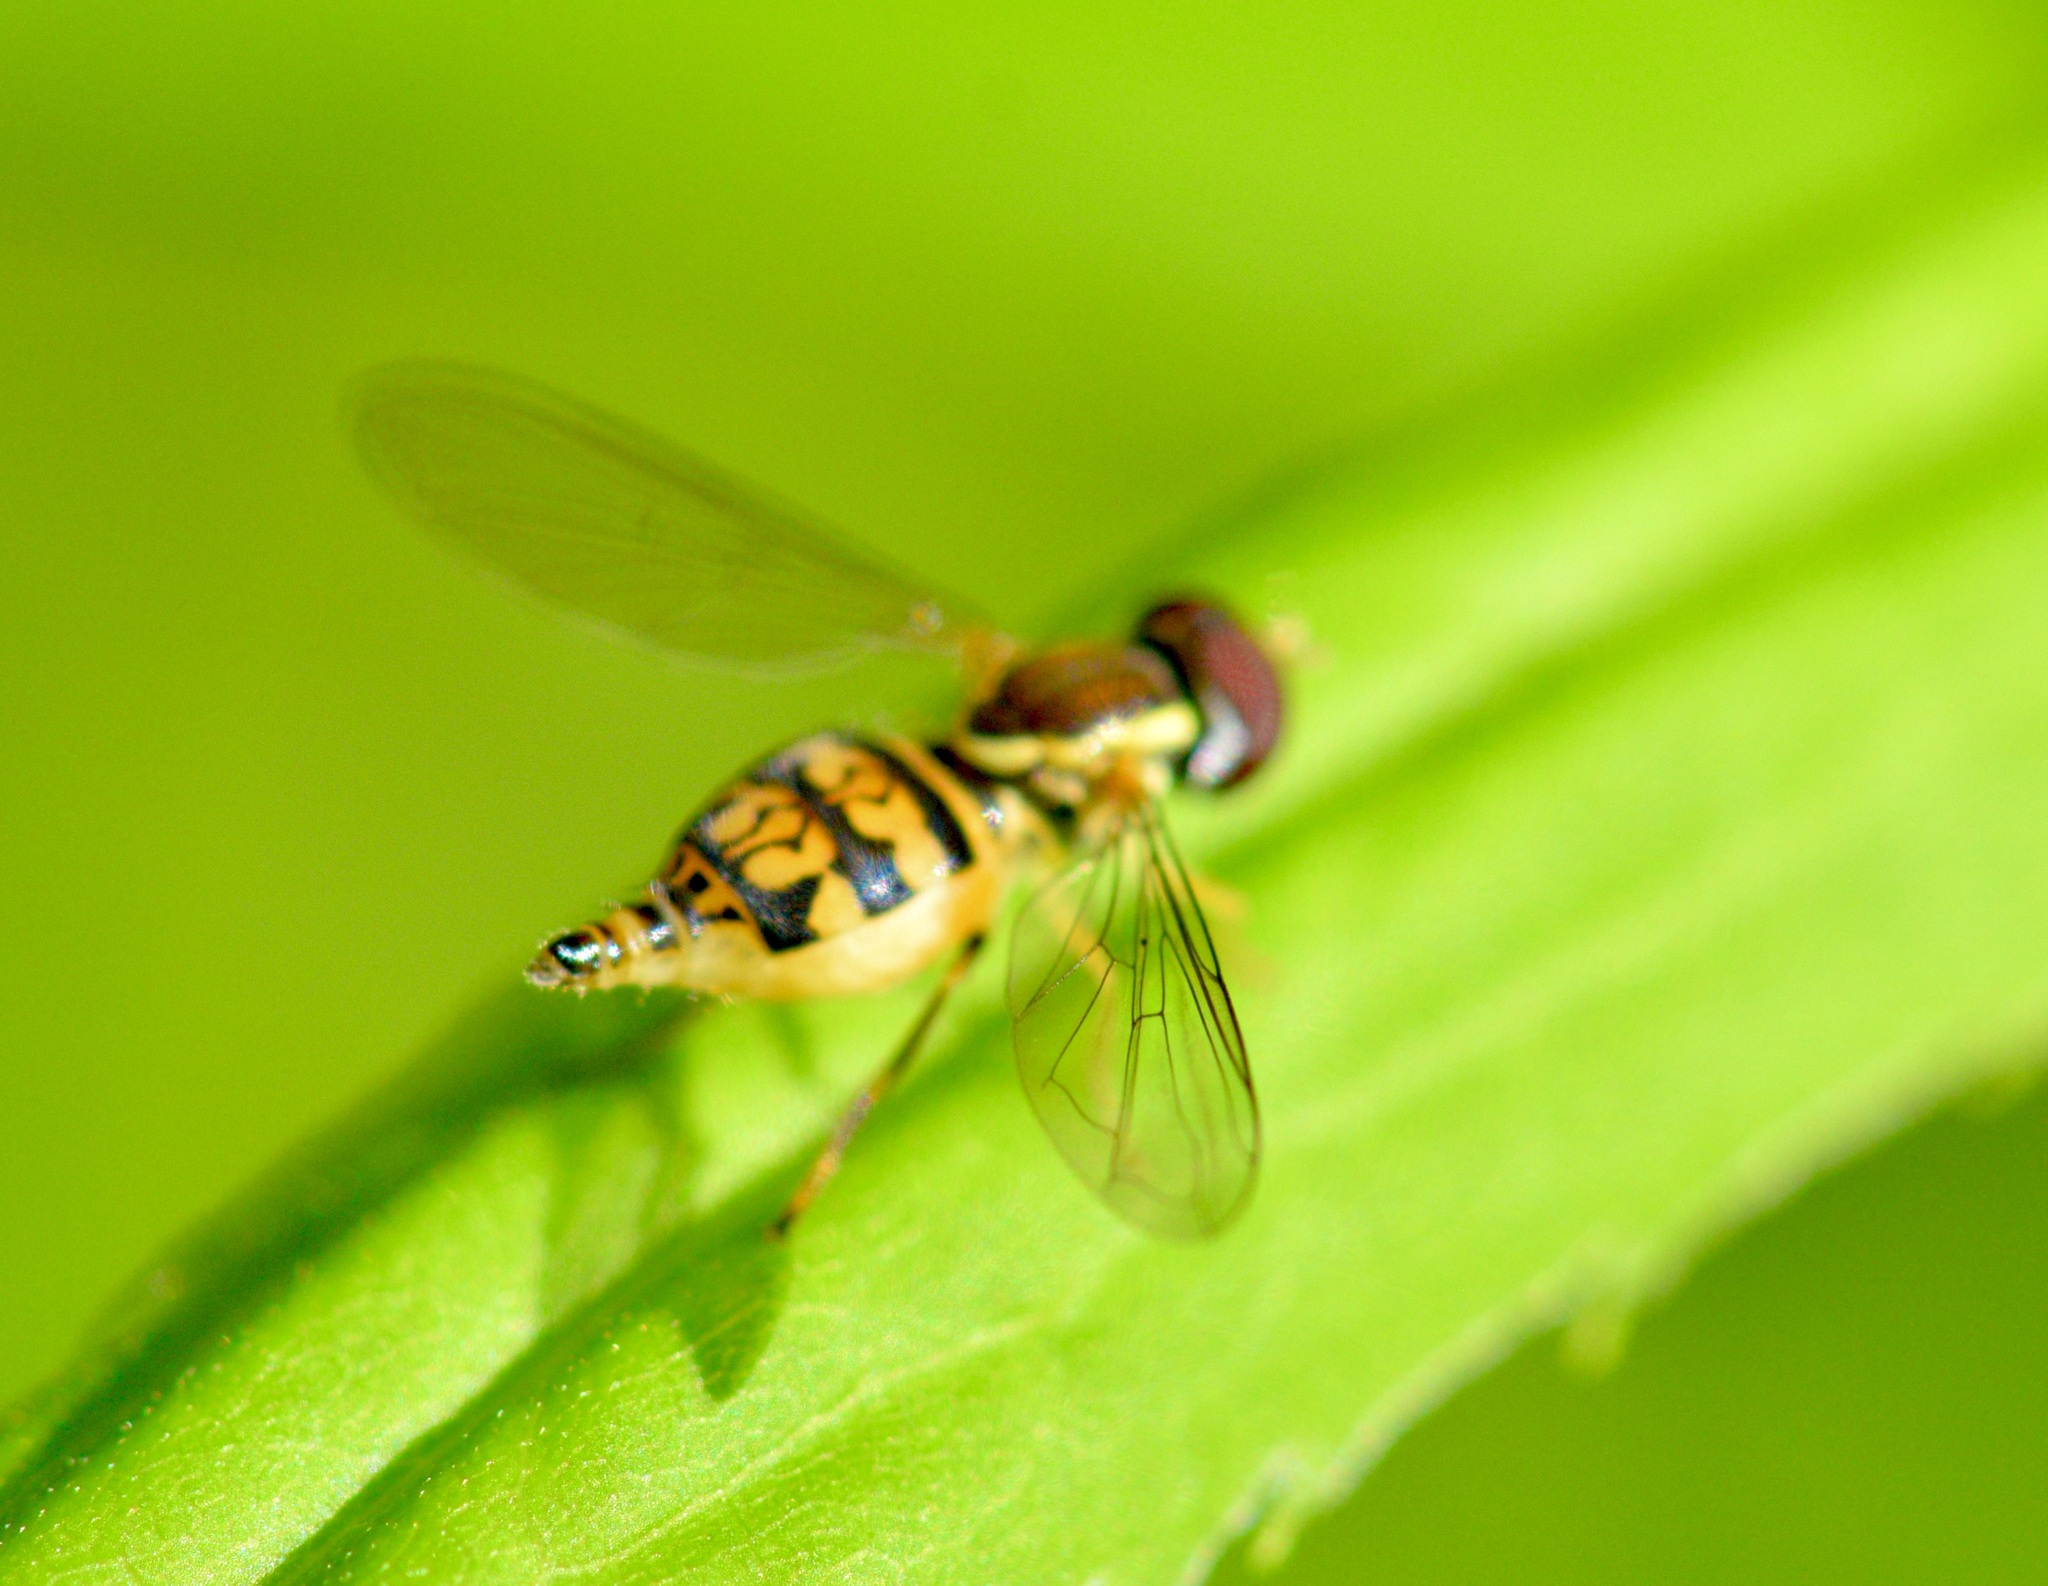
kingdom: Animalia
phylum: Arthropoda
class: Insecta
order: Diptera
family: Syrphidae
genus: Toxomerus
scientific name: Toxomerus geminatus
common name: Eastern calligrapher
